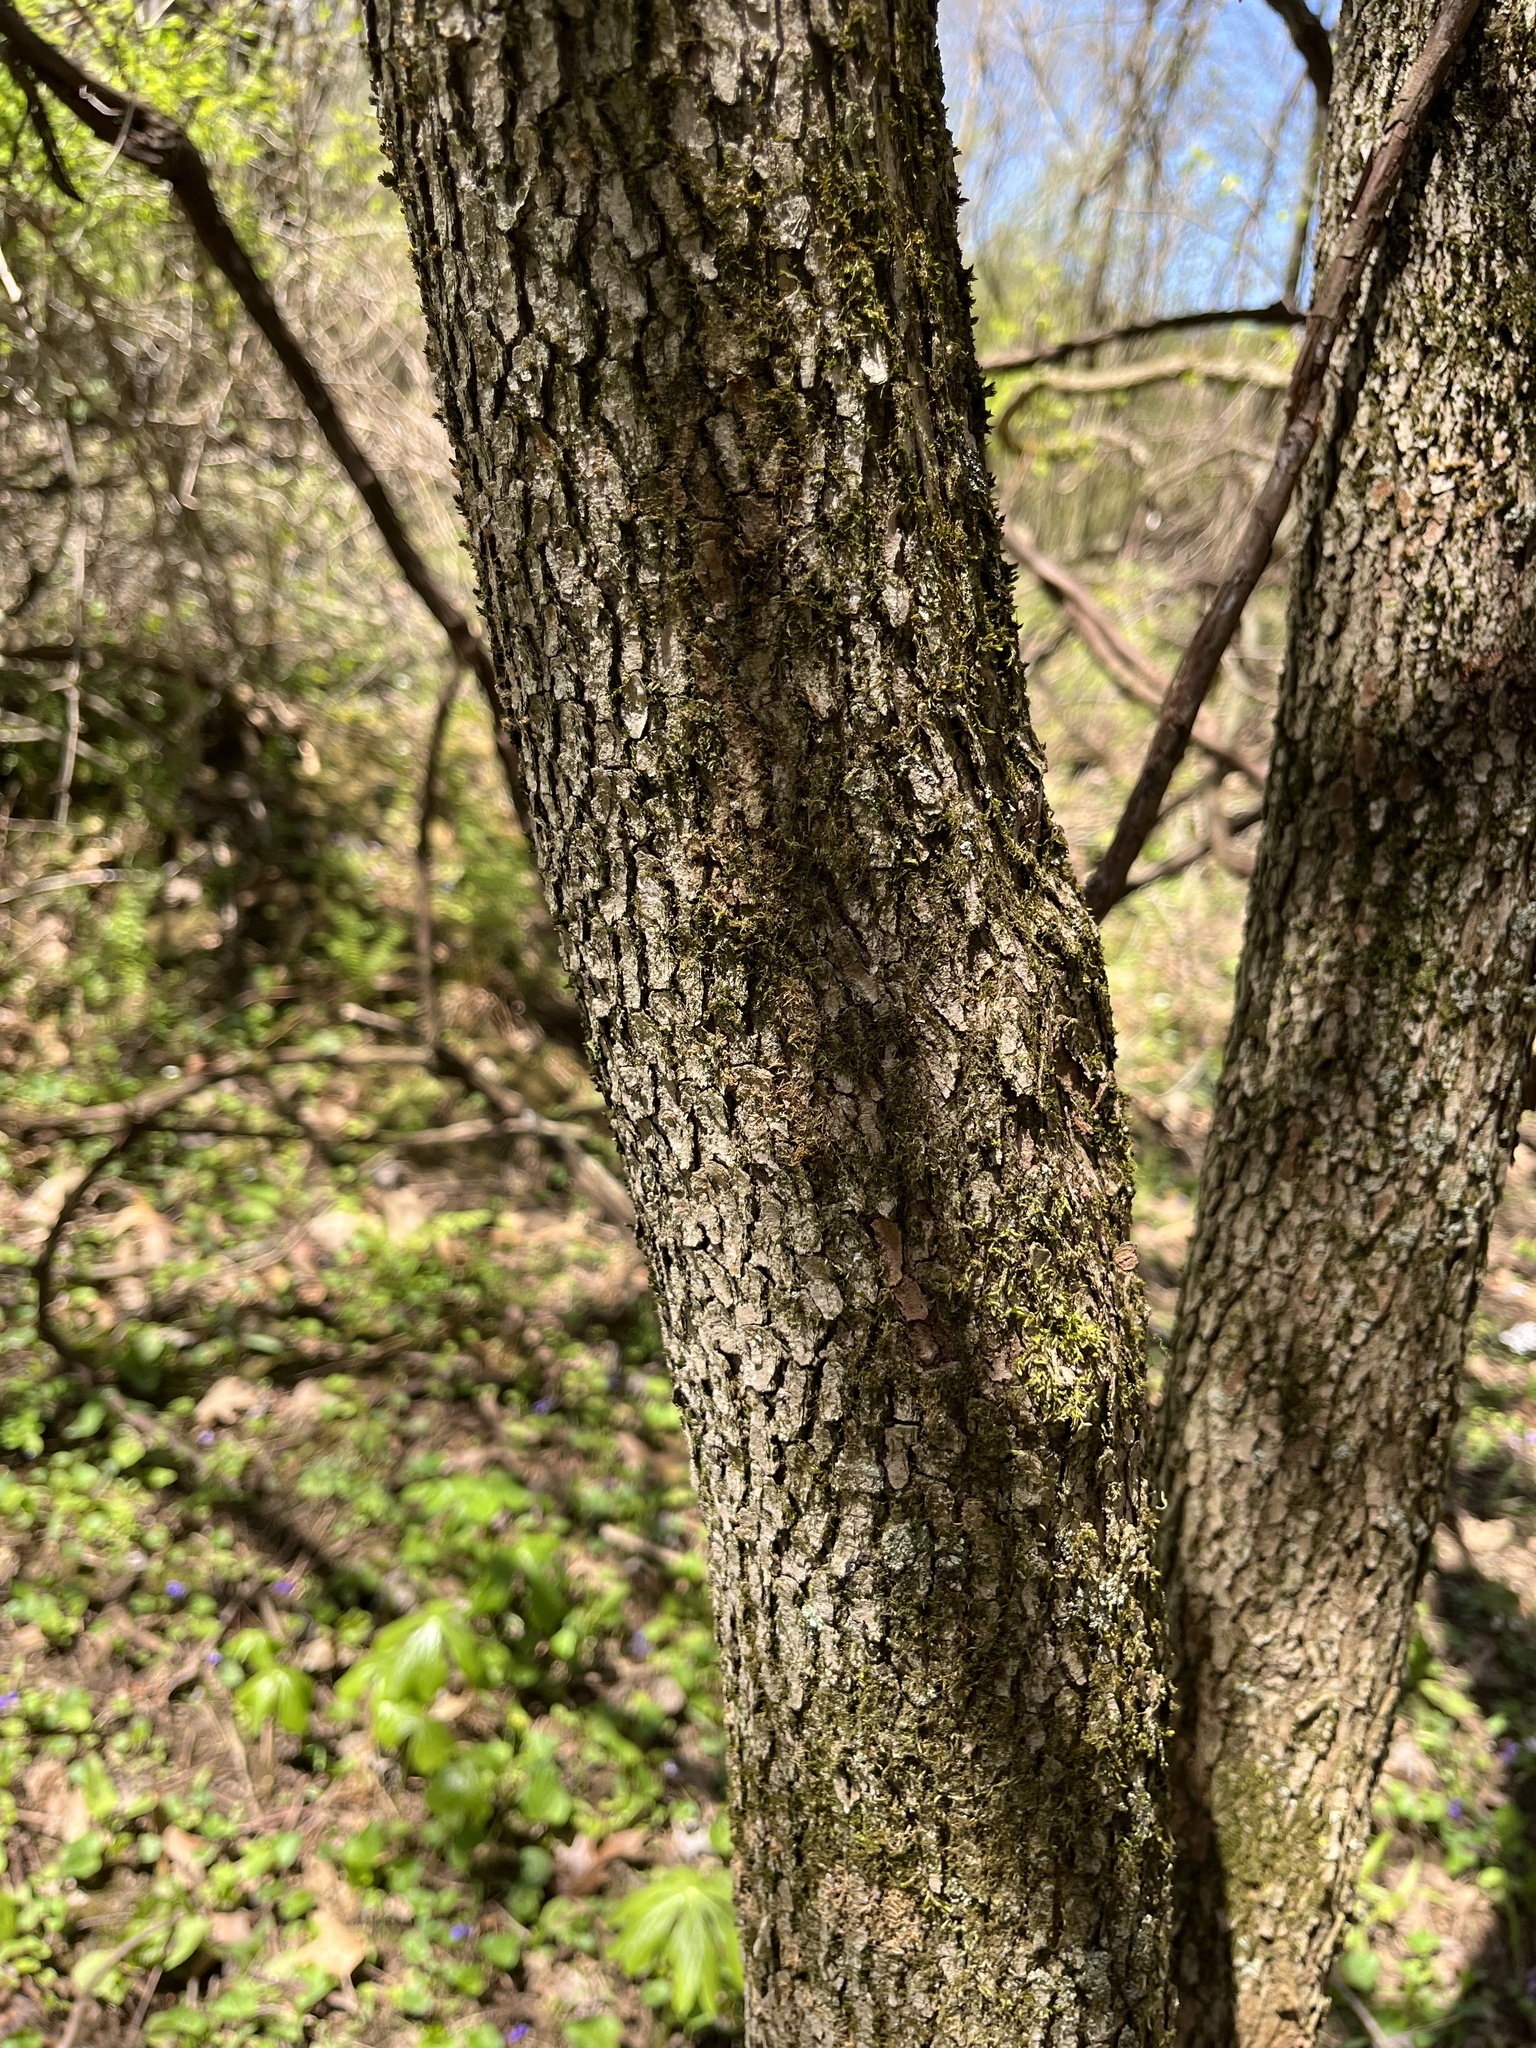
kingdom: Plantae
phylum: Tracheophyta
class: Magnoliopsida
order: Cornales
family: Cornaceae
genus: Cornus
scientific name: Cornus florida
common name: Flowering dogwood
